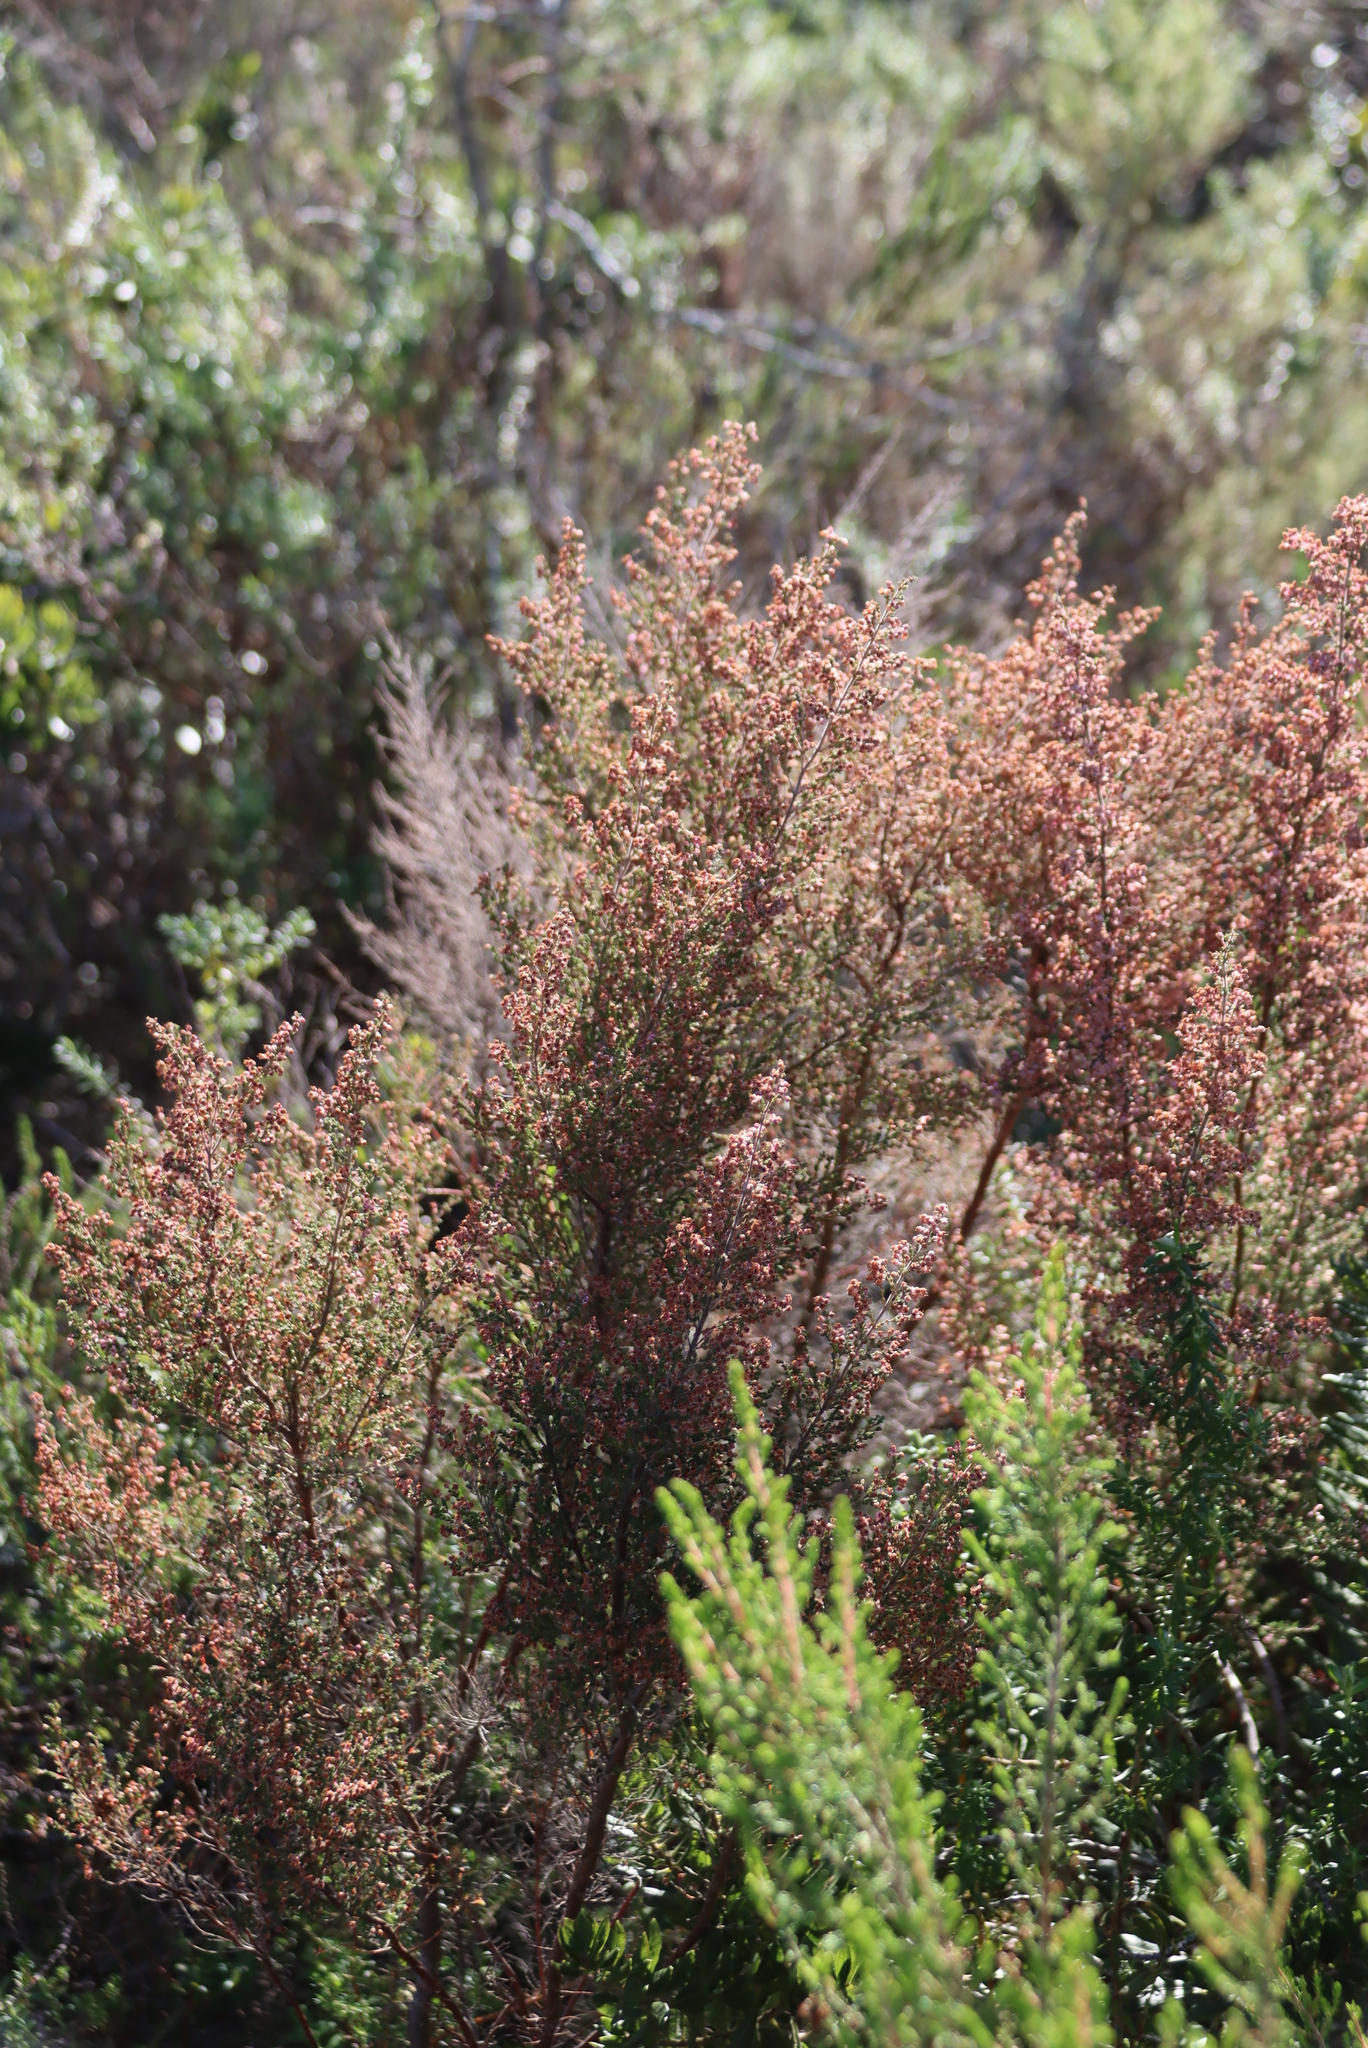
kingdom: Plantae
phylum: Tracheophyta
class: Magnoliopsida
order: Ericales
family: Ericaceae
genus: Erica
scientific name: Erica sparsa
